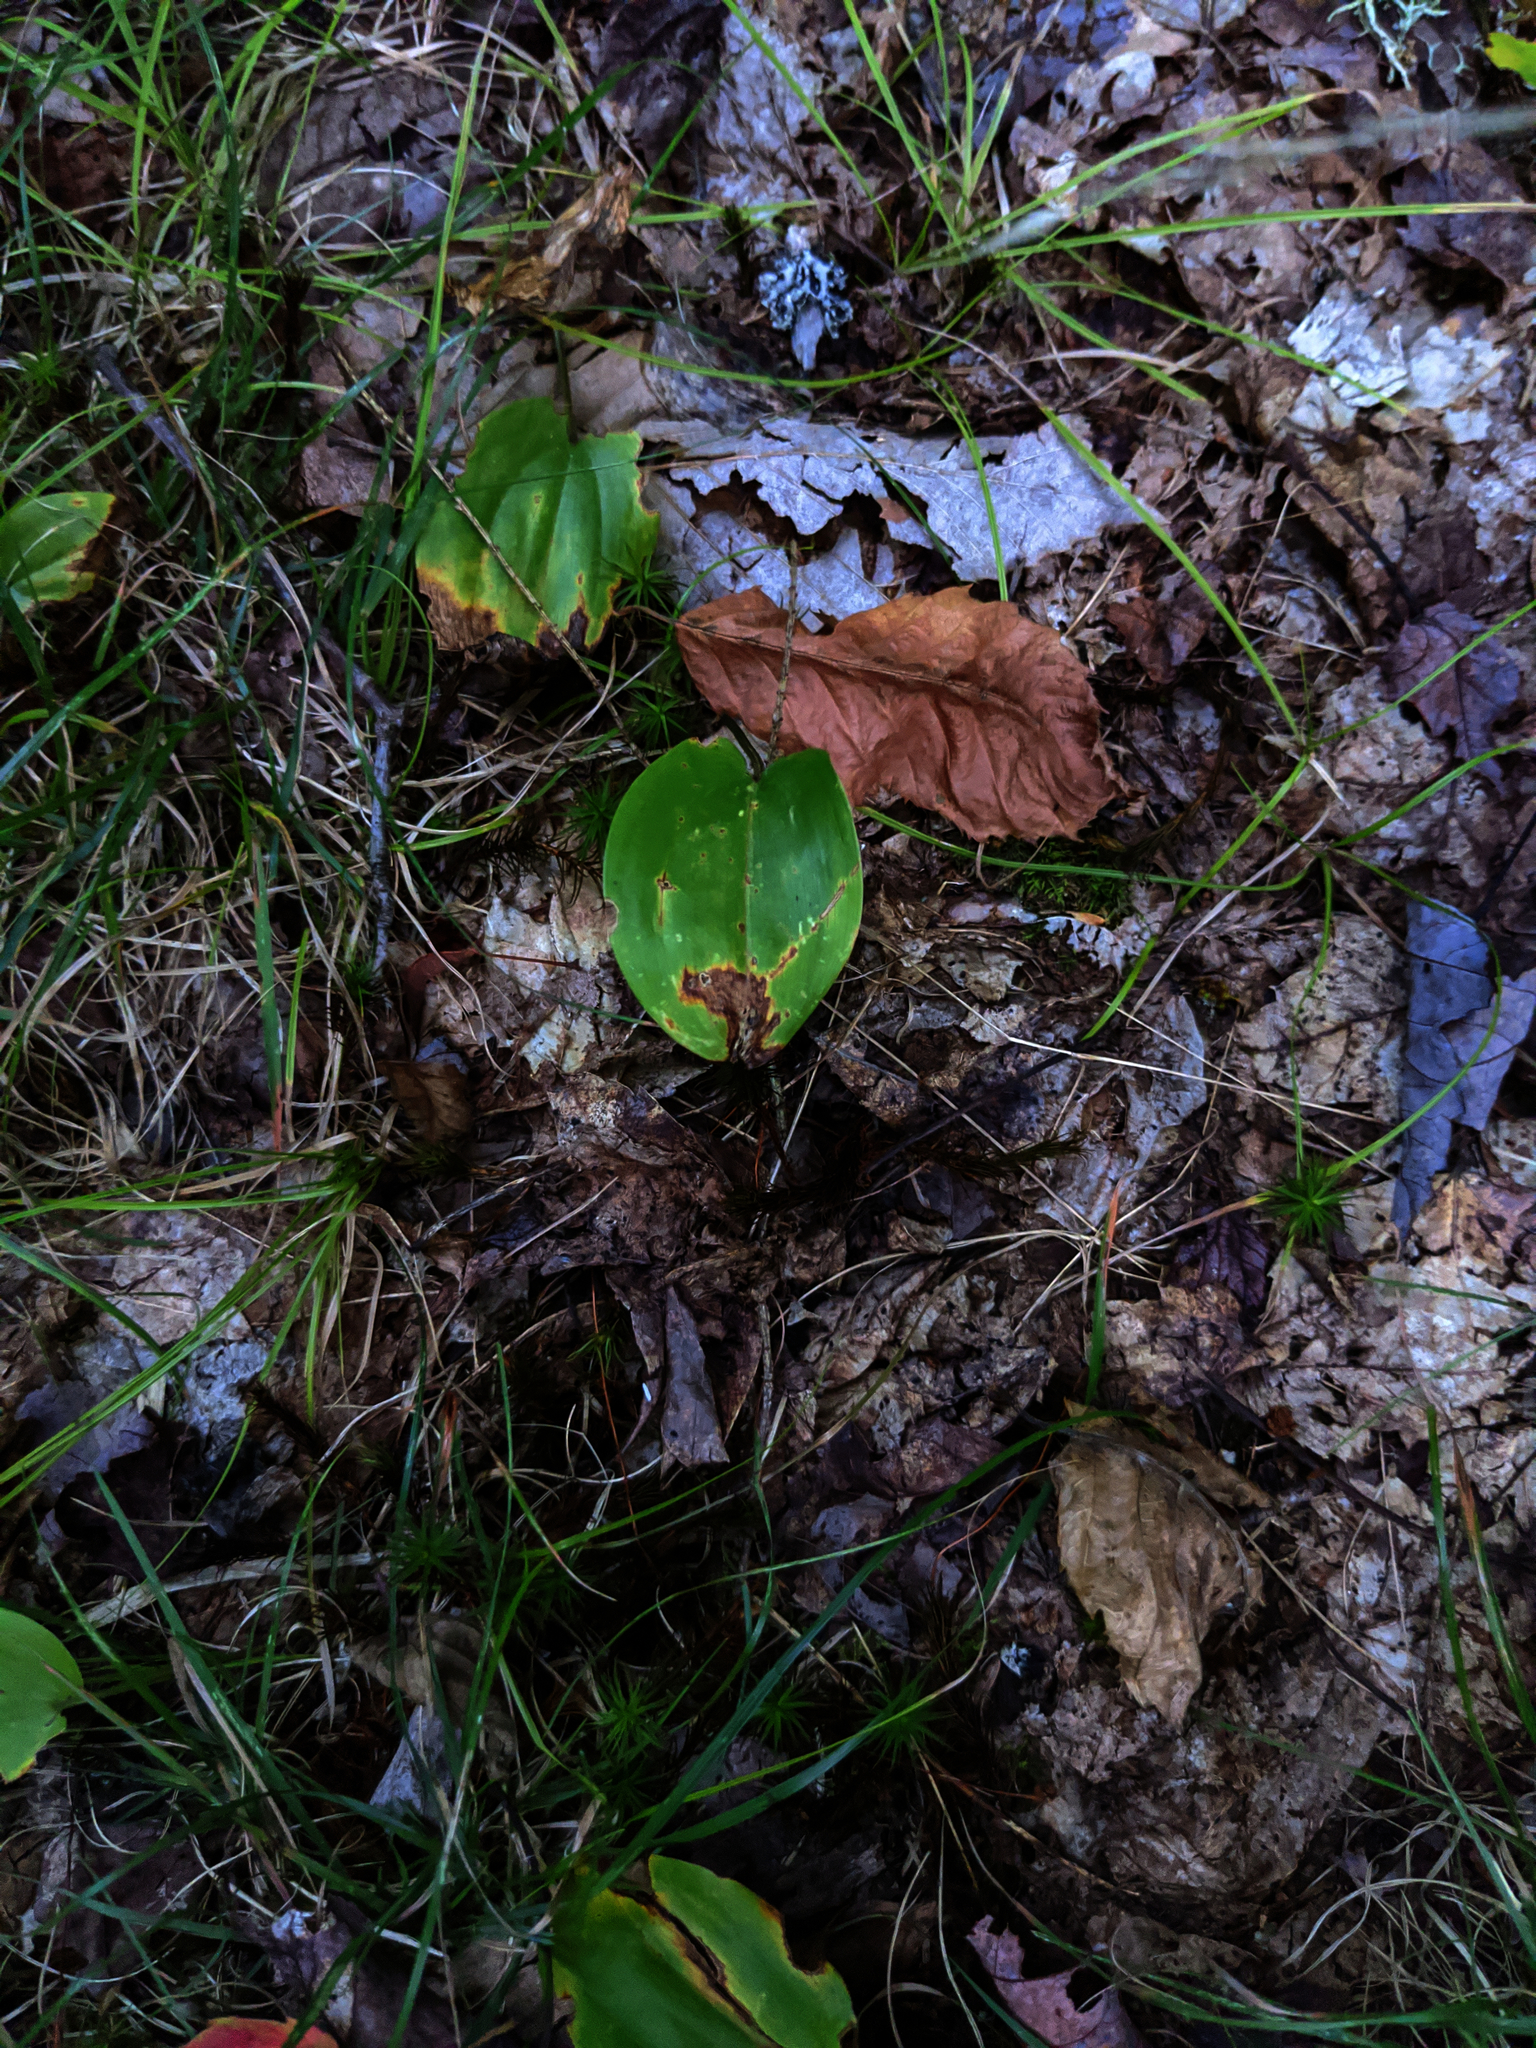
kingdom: Plantae
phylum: Tracheophyta
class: Liliopsida
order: Asparagales
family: Asparagaceae
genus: Maianthemum
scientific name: Maianthemum canadense
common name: False lily-of-the-valley
